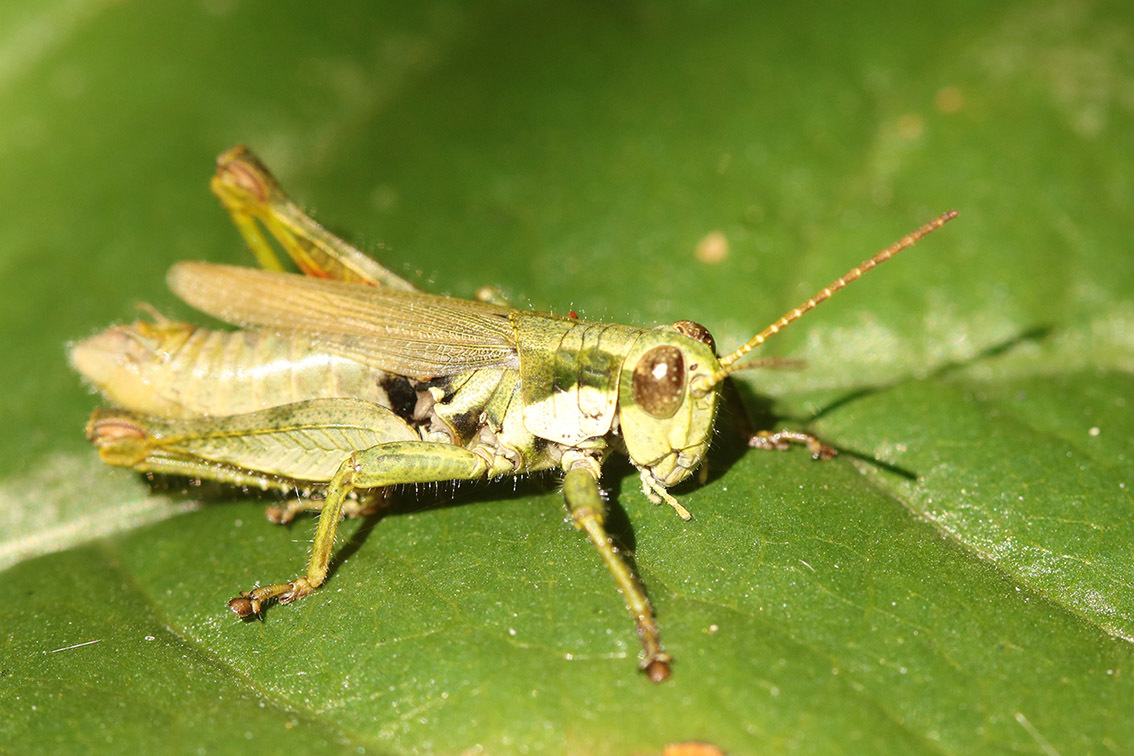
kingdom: Animalia
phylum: Arthropoda
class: Insecta
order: Orthoptera
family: Acrididae
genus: Ronderosia
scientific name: Ronderosia bergii
